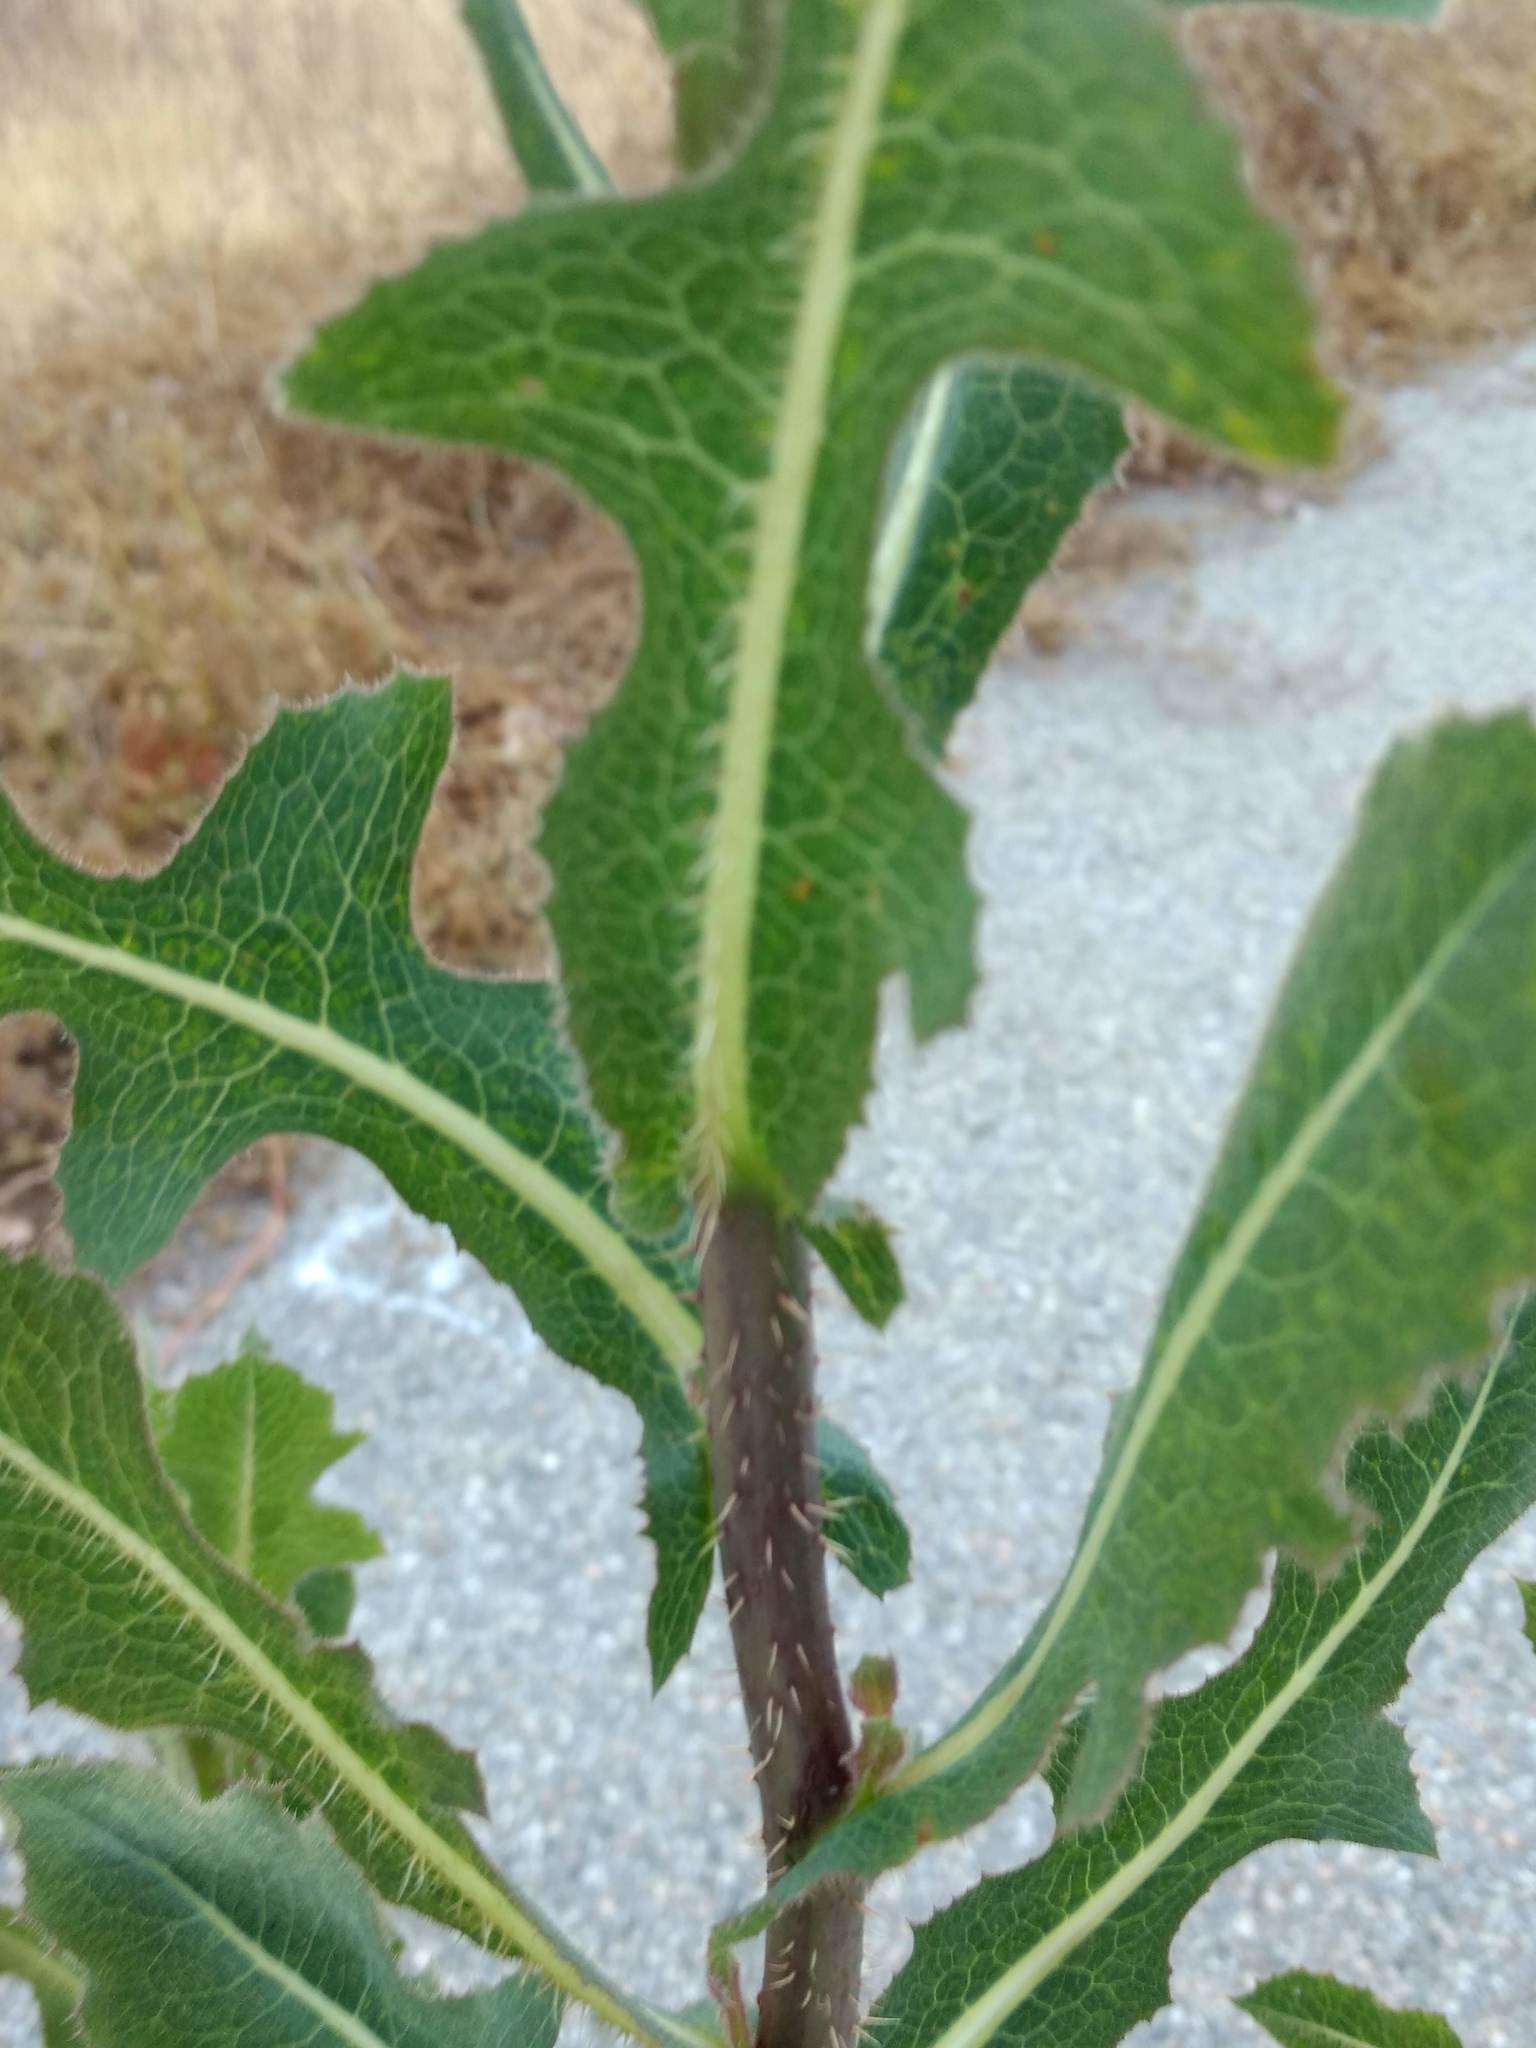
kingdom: Plantae
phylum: Tracheophyta
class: Magnoliopsida
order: Asterales
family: Asteraceae
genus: Lactuca
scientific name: Lactuca serriola
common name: Prickly lettuce
